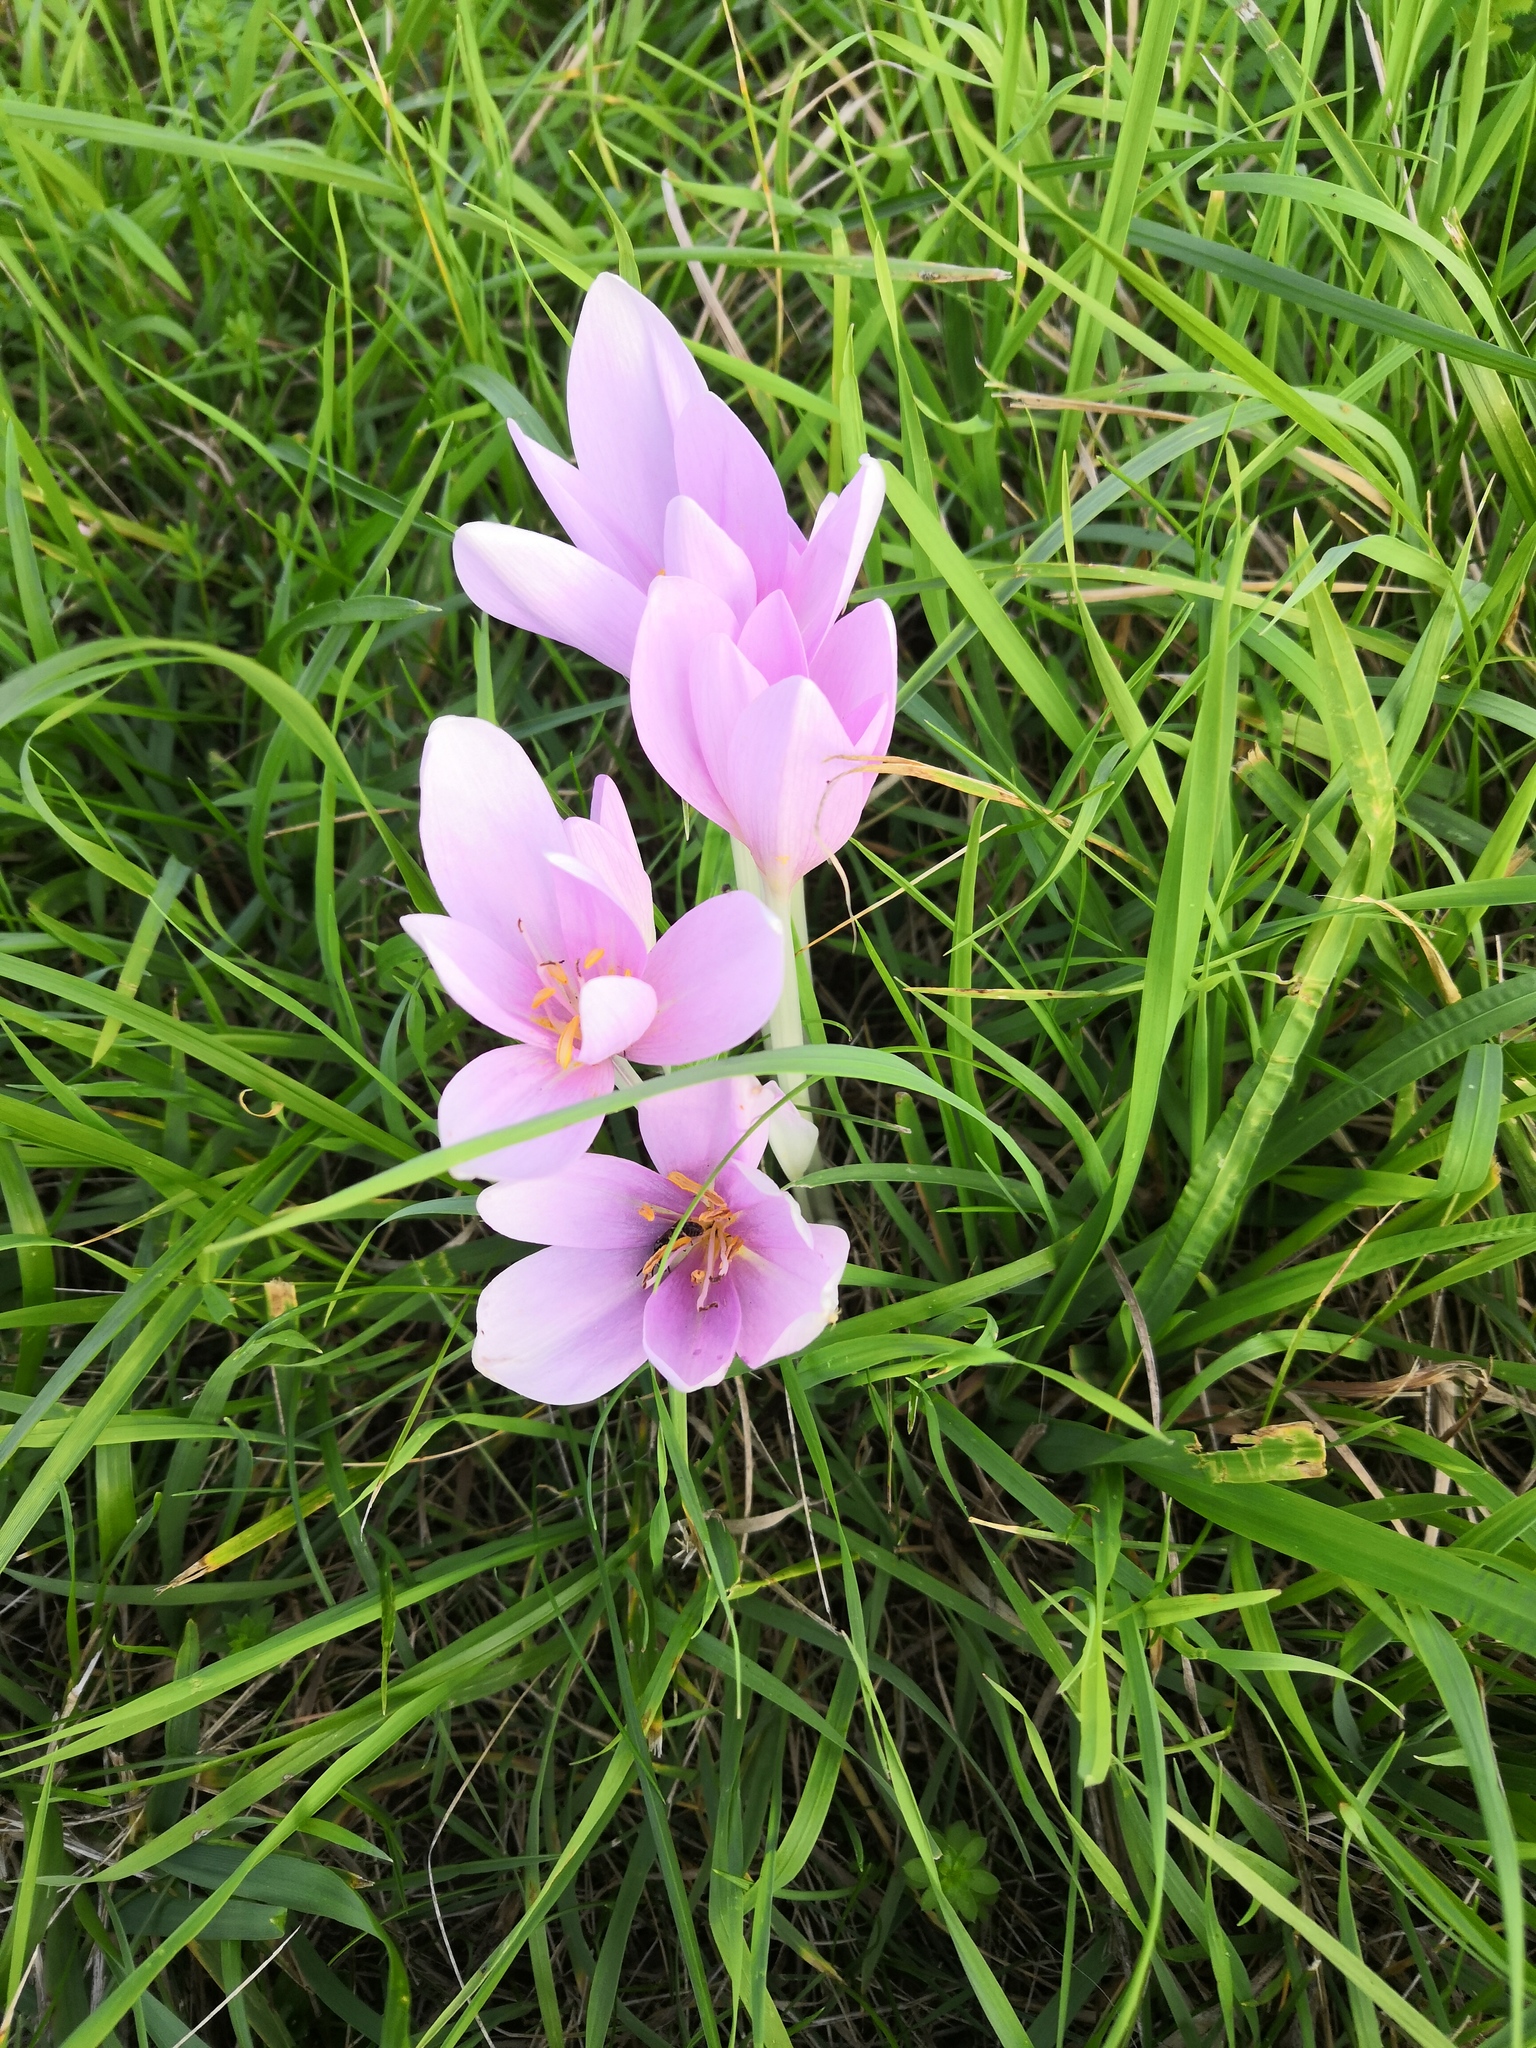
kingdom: Plantae
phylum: Tracheophyta
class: Liliopsida
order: Liliales
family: Colchicaceae
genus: Colchicum
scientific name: Colchicum autumnale
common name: Autumn crocus
